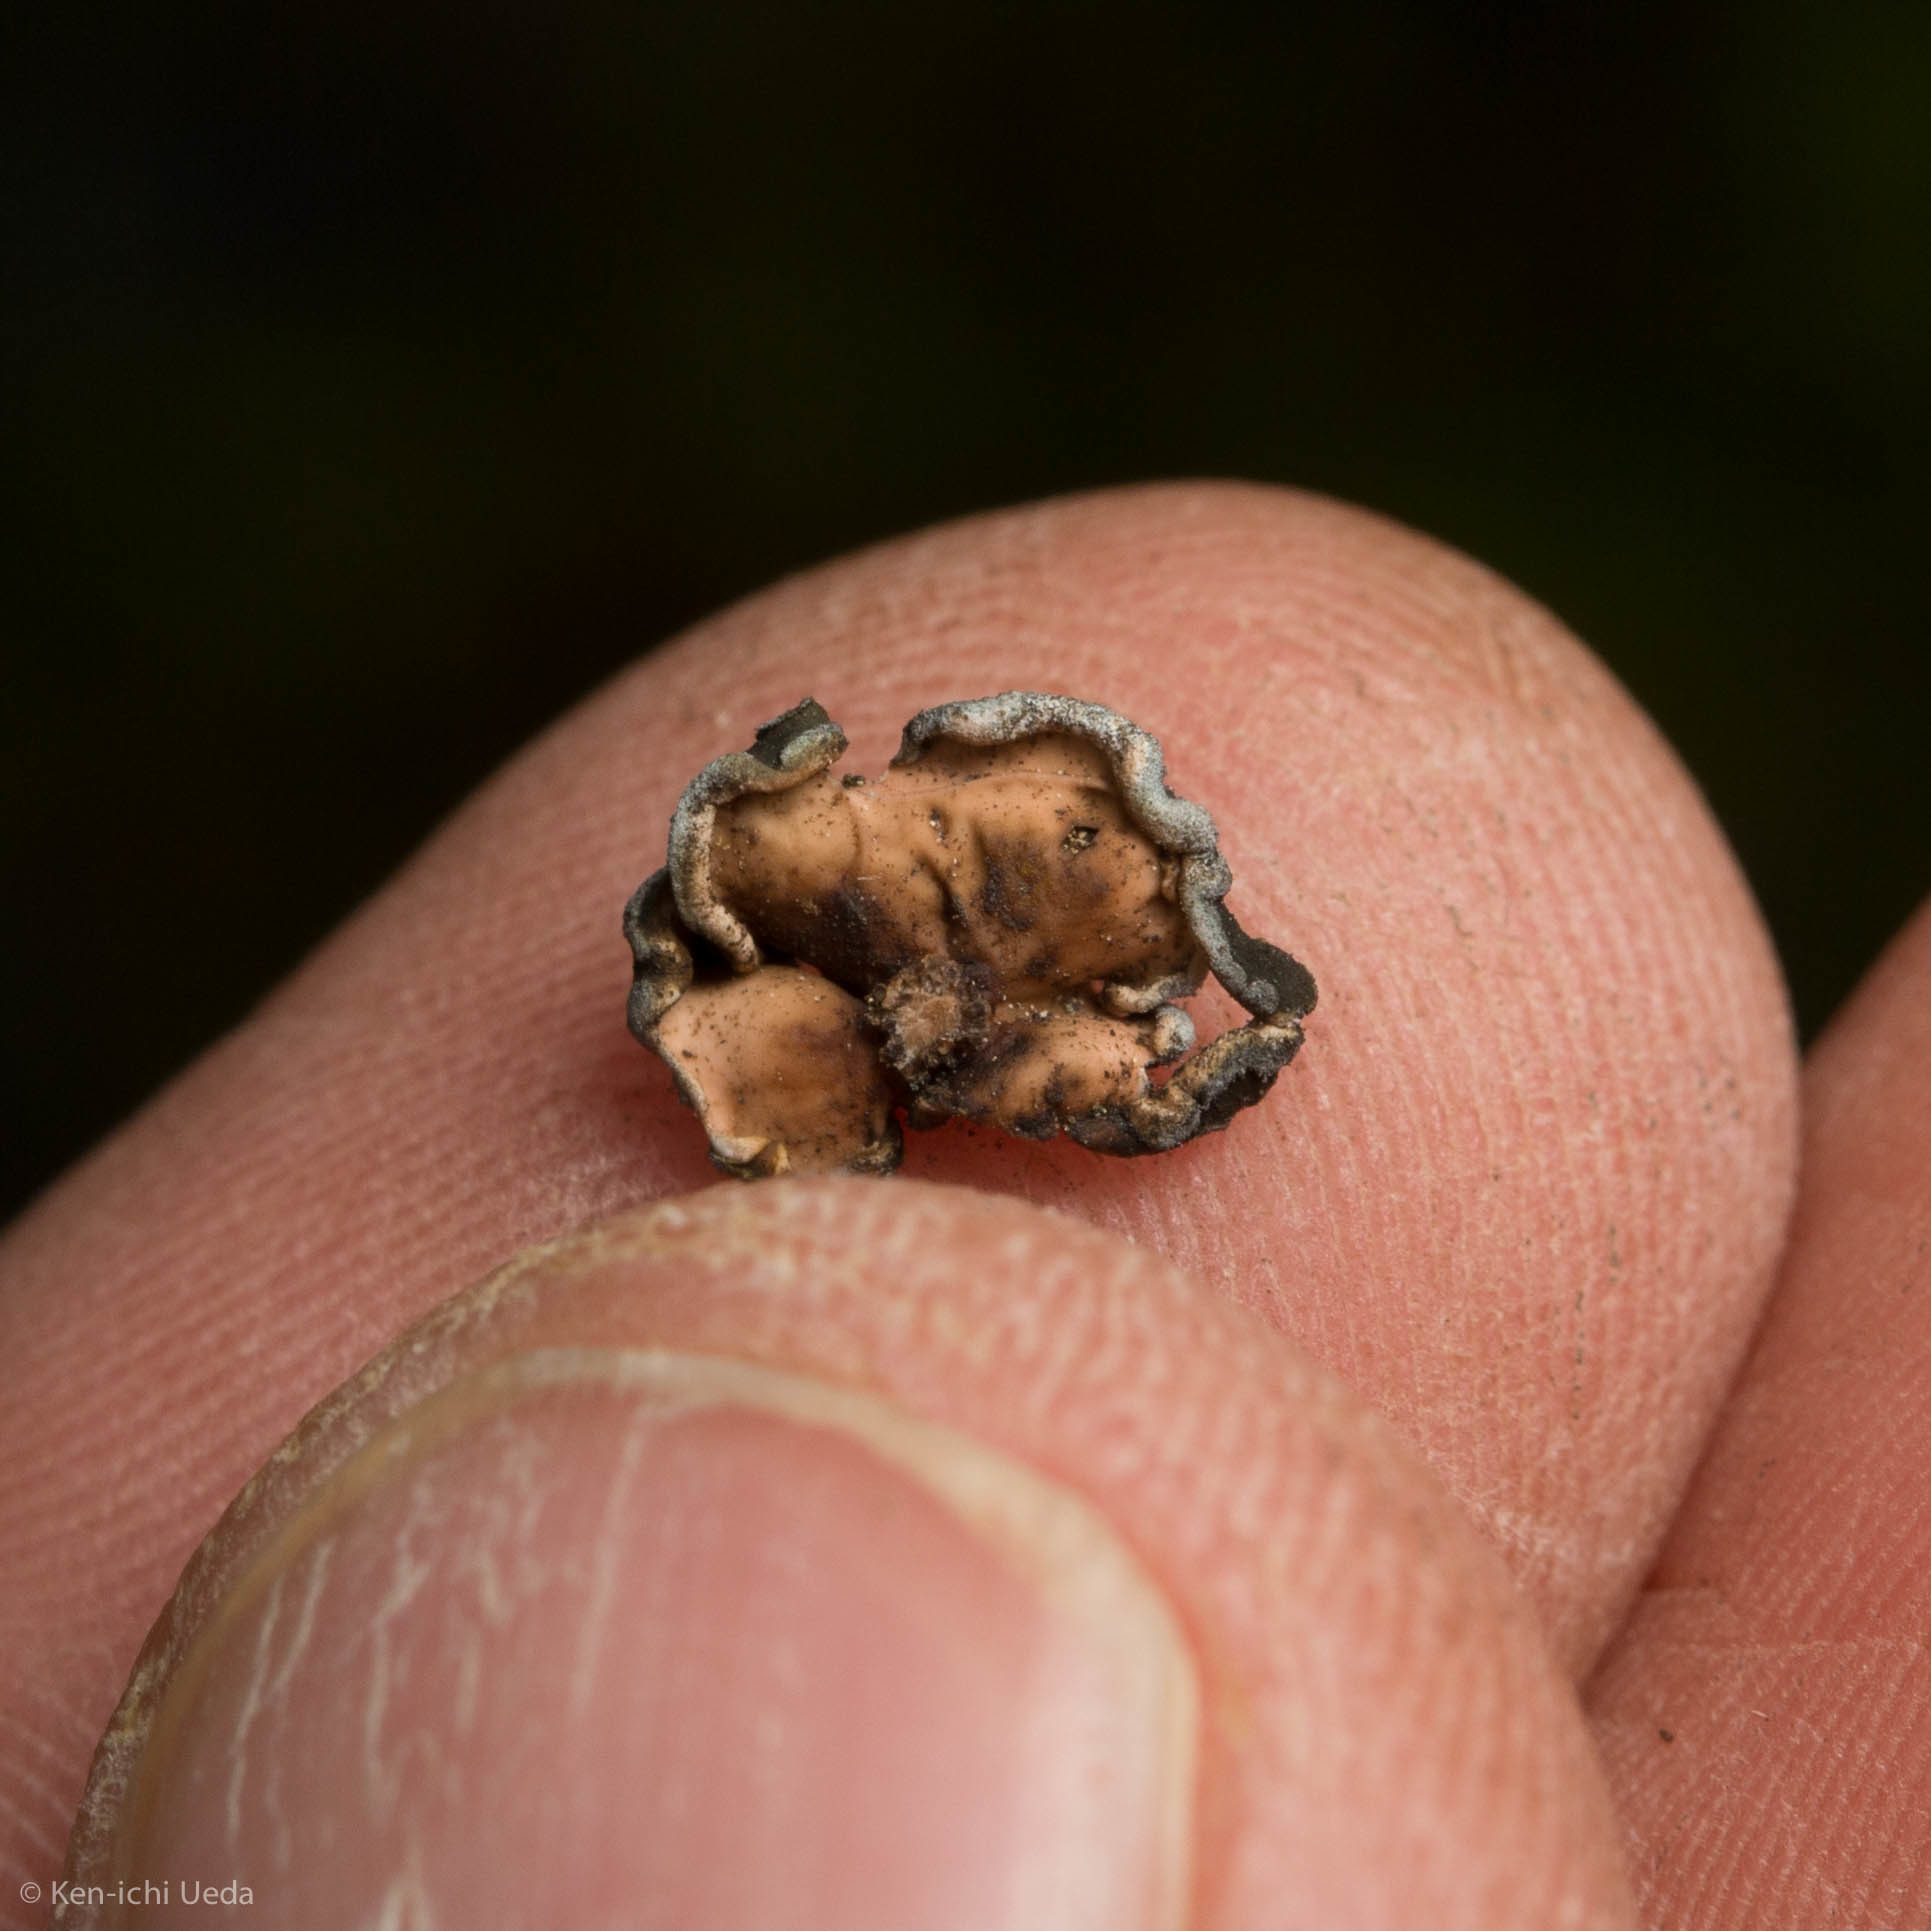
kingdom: Fungi
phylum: Ascomycota
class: Lichinomycetes
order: Lichinales
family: Peltulaceae
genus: Peltula
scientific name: Peltula euploca
